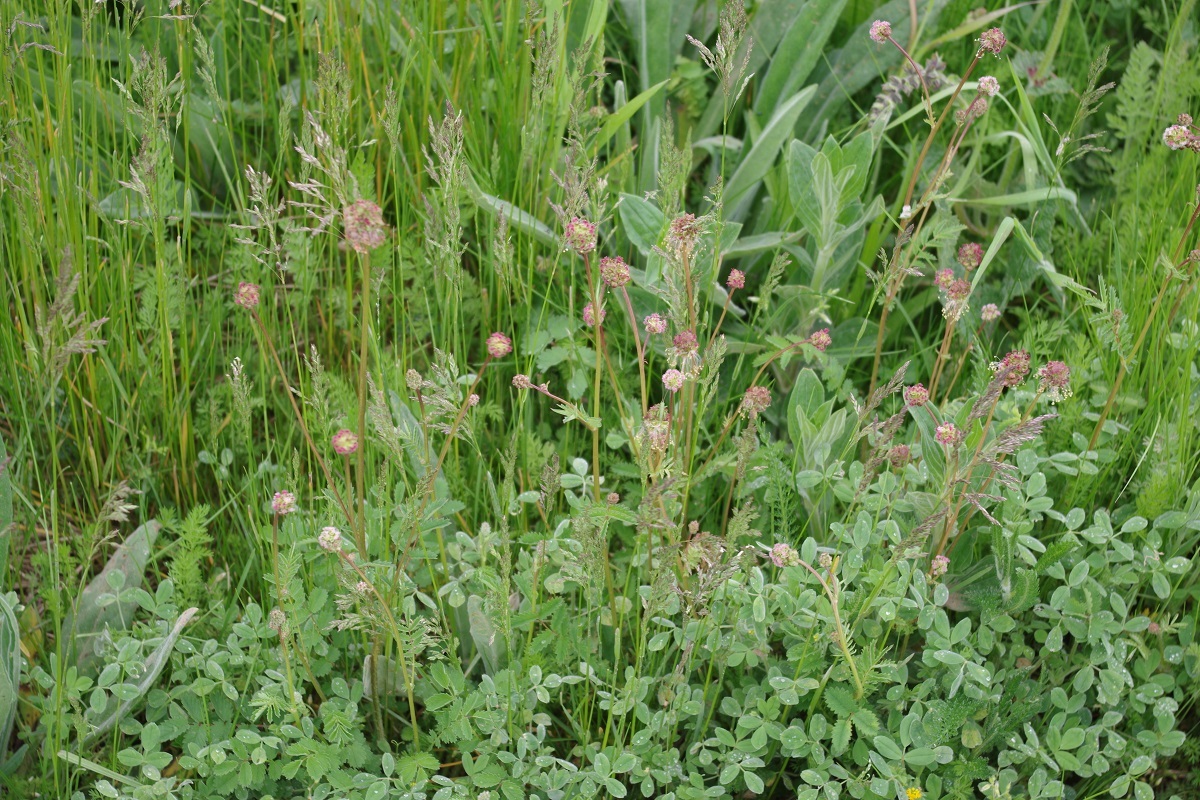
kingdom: Plantae
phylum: Tracheophyta
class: Magnoliopsida
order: Rosales
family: Rosaceae
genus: Poterium
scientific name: Poterium sanguisorba
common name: Salad burnet
